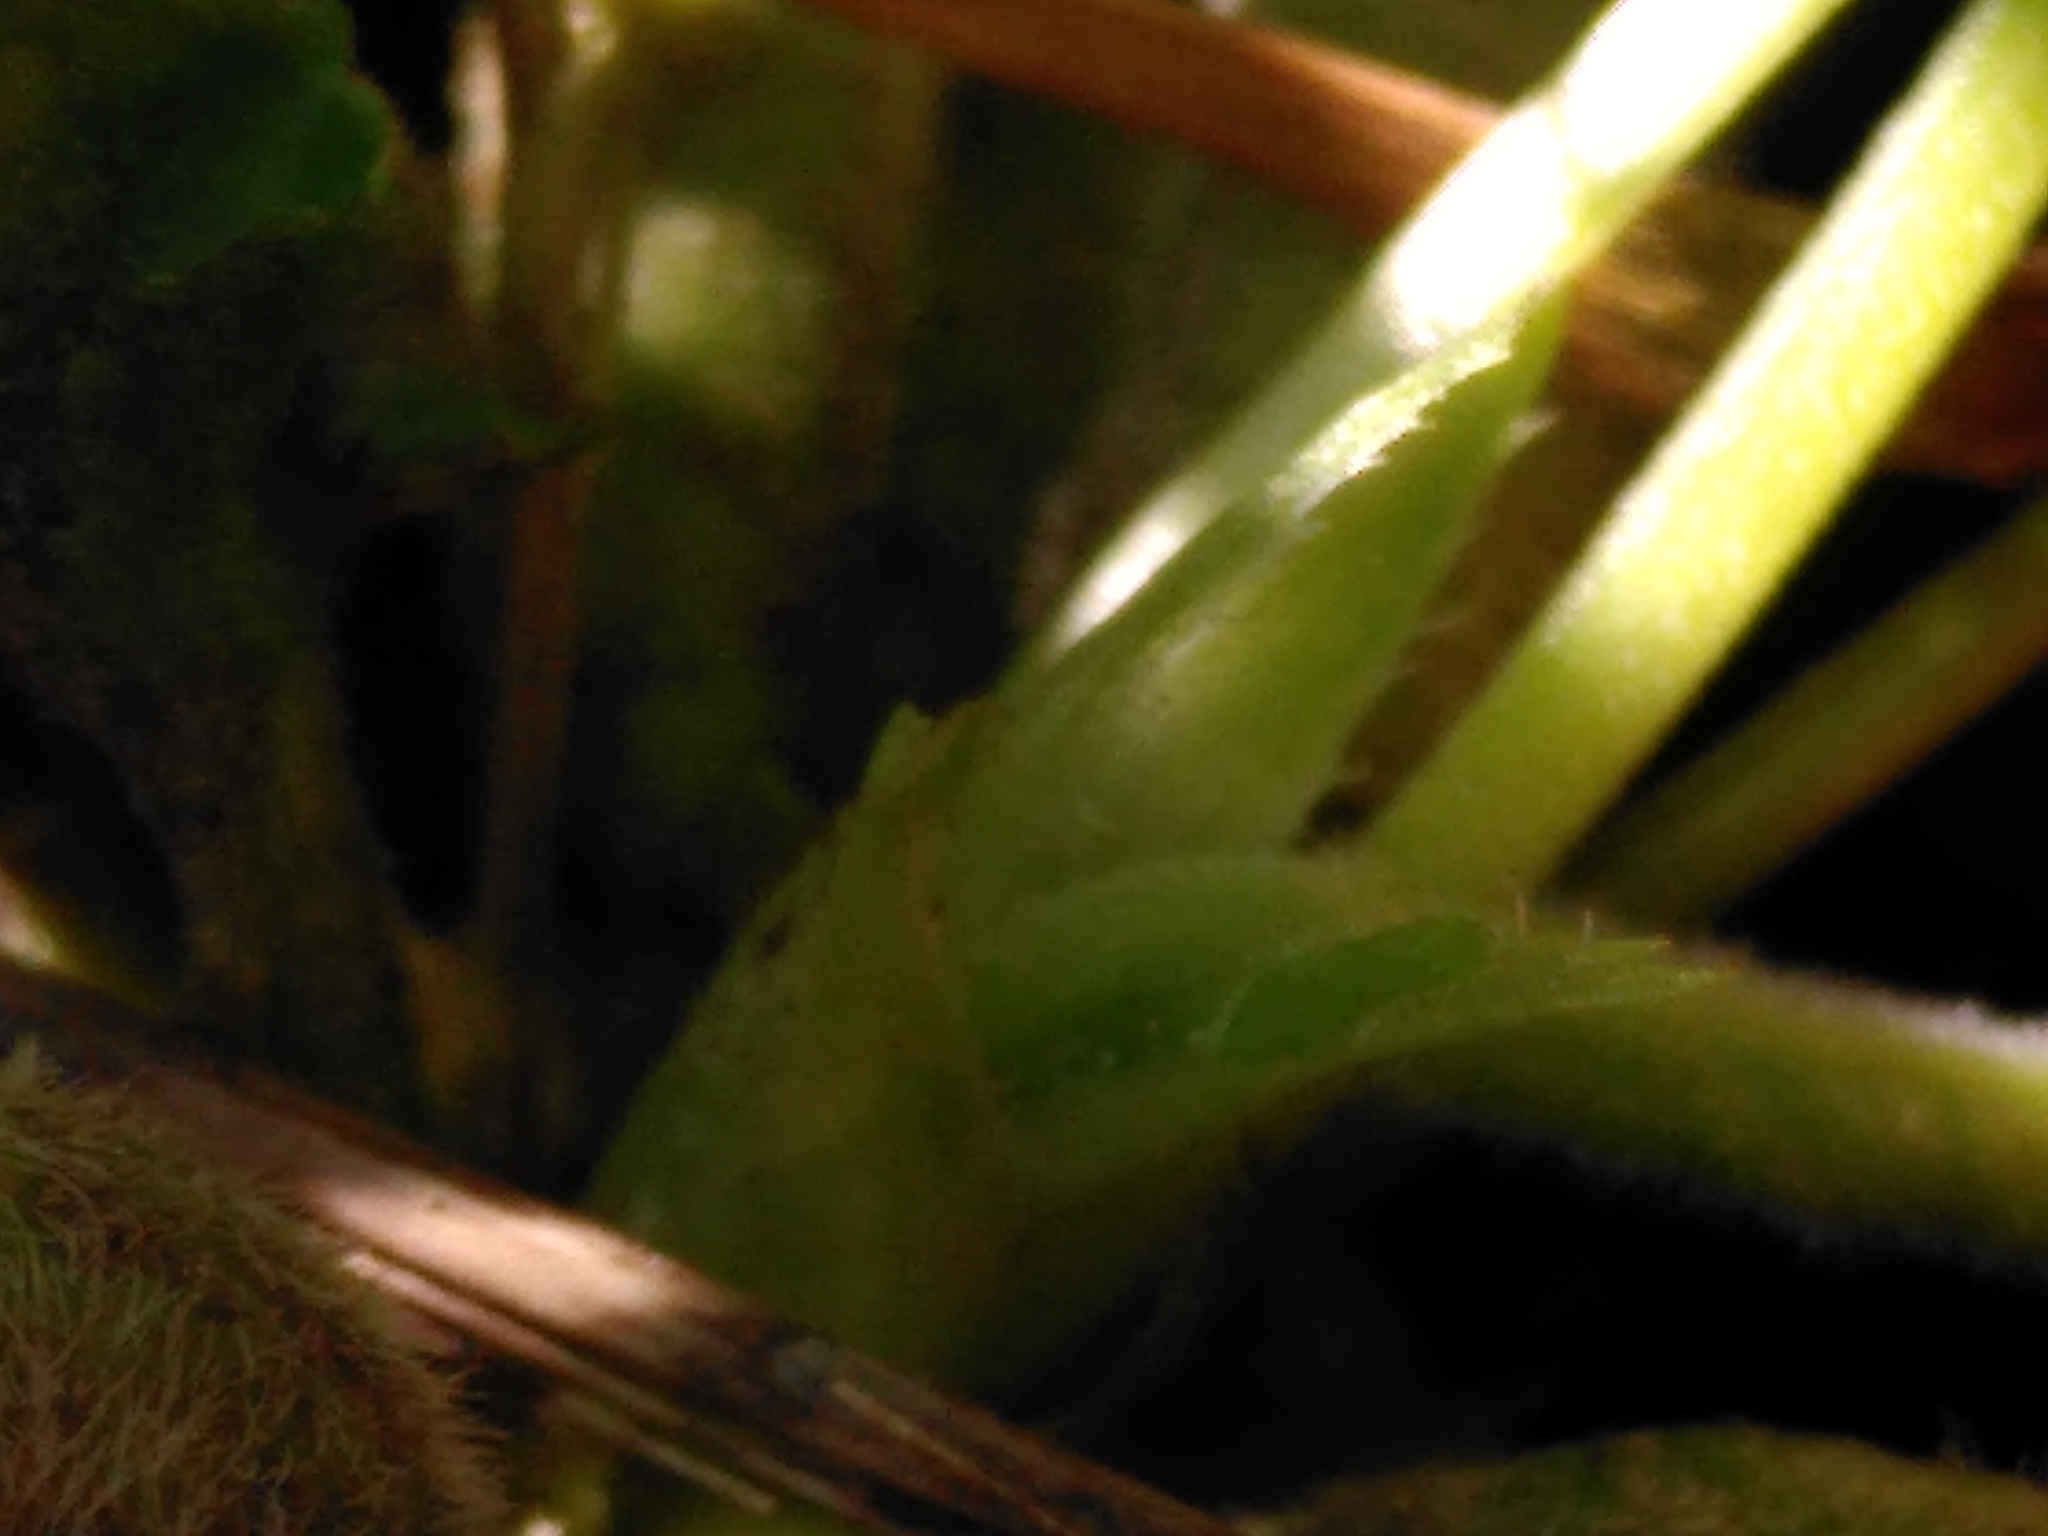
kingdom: Plantae
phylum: Tracheophyta
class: Magnoliopsida
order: Malpighiales
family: Violaceae
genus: Viola
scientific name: Viola odorata
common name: Sweet violet
